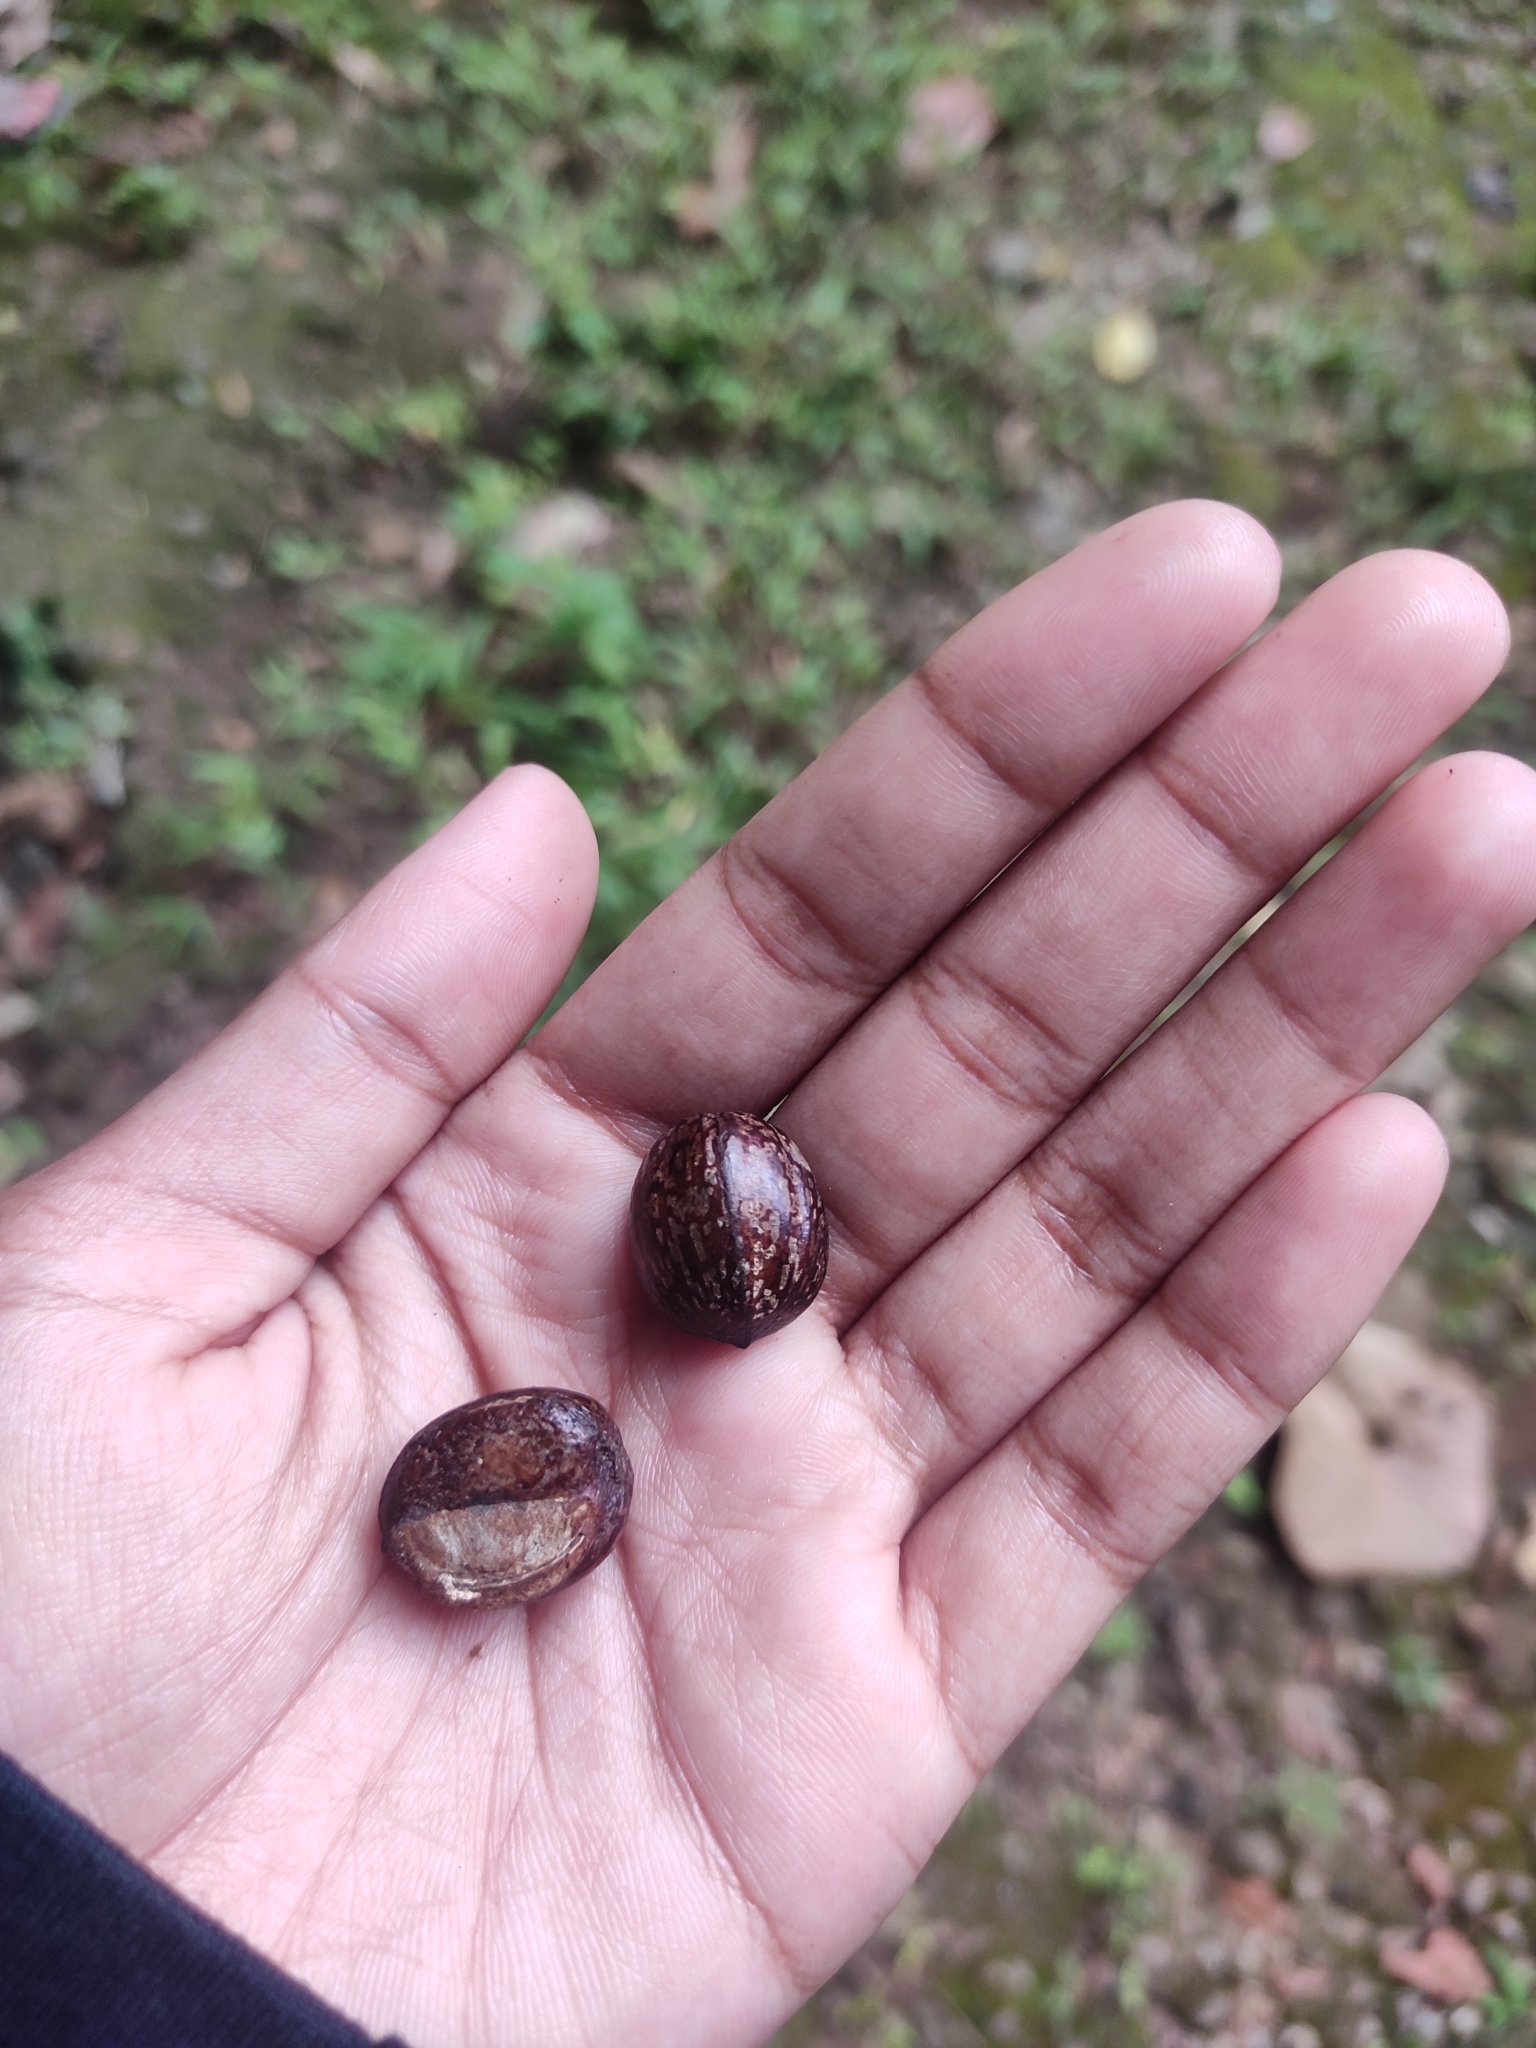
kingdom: Plantae
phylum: Tracheophyta
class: Magnoliopsida
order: Malpighiales
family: Euphorbiaceae
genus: Paracroton
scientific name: Paracroton pendulus
